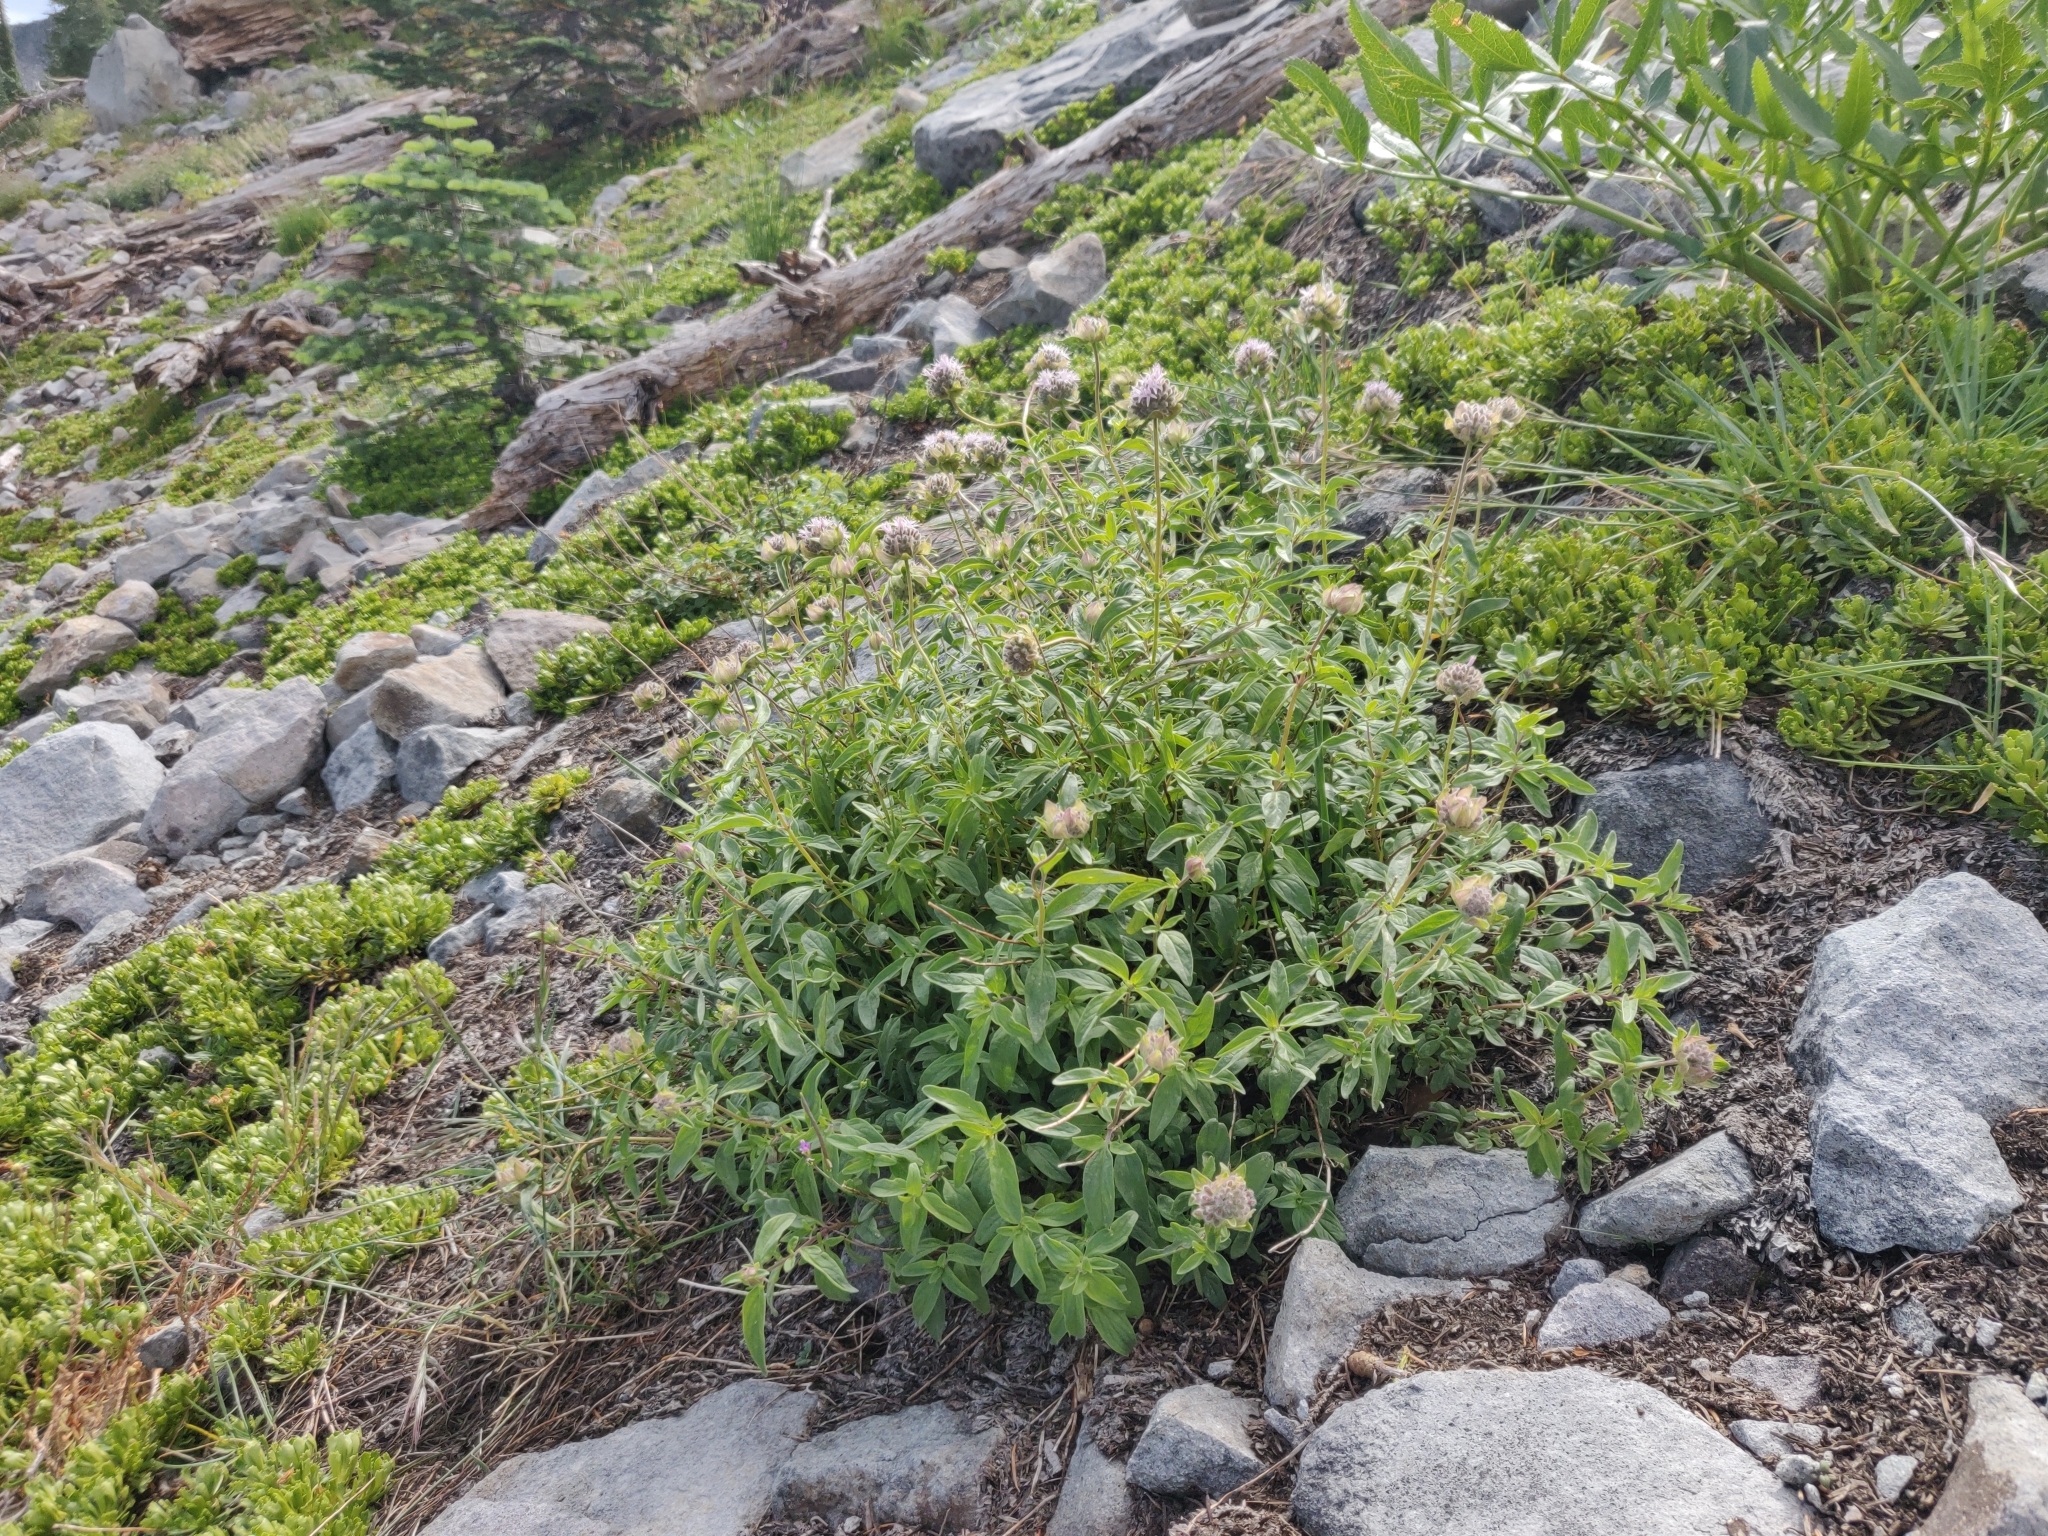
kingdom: Plantae
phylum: Tracheophyta
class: Magnoliopsida
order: Lamiales
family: Lamiaceae
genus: Monardella
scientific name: Monardella odoratissima
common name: Pacific monardella
